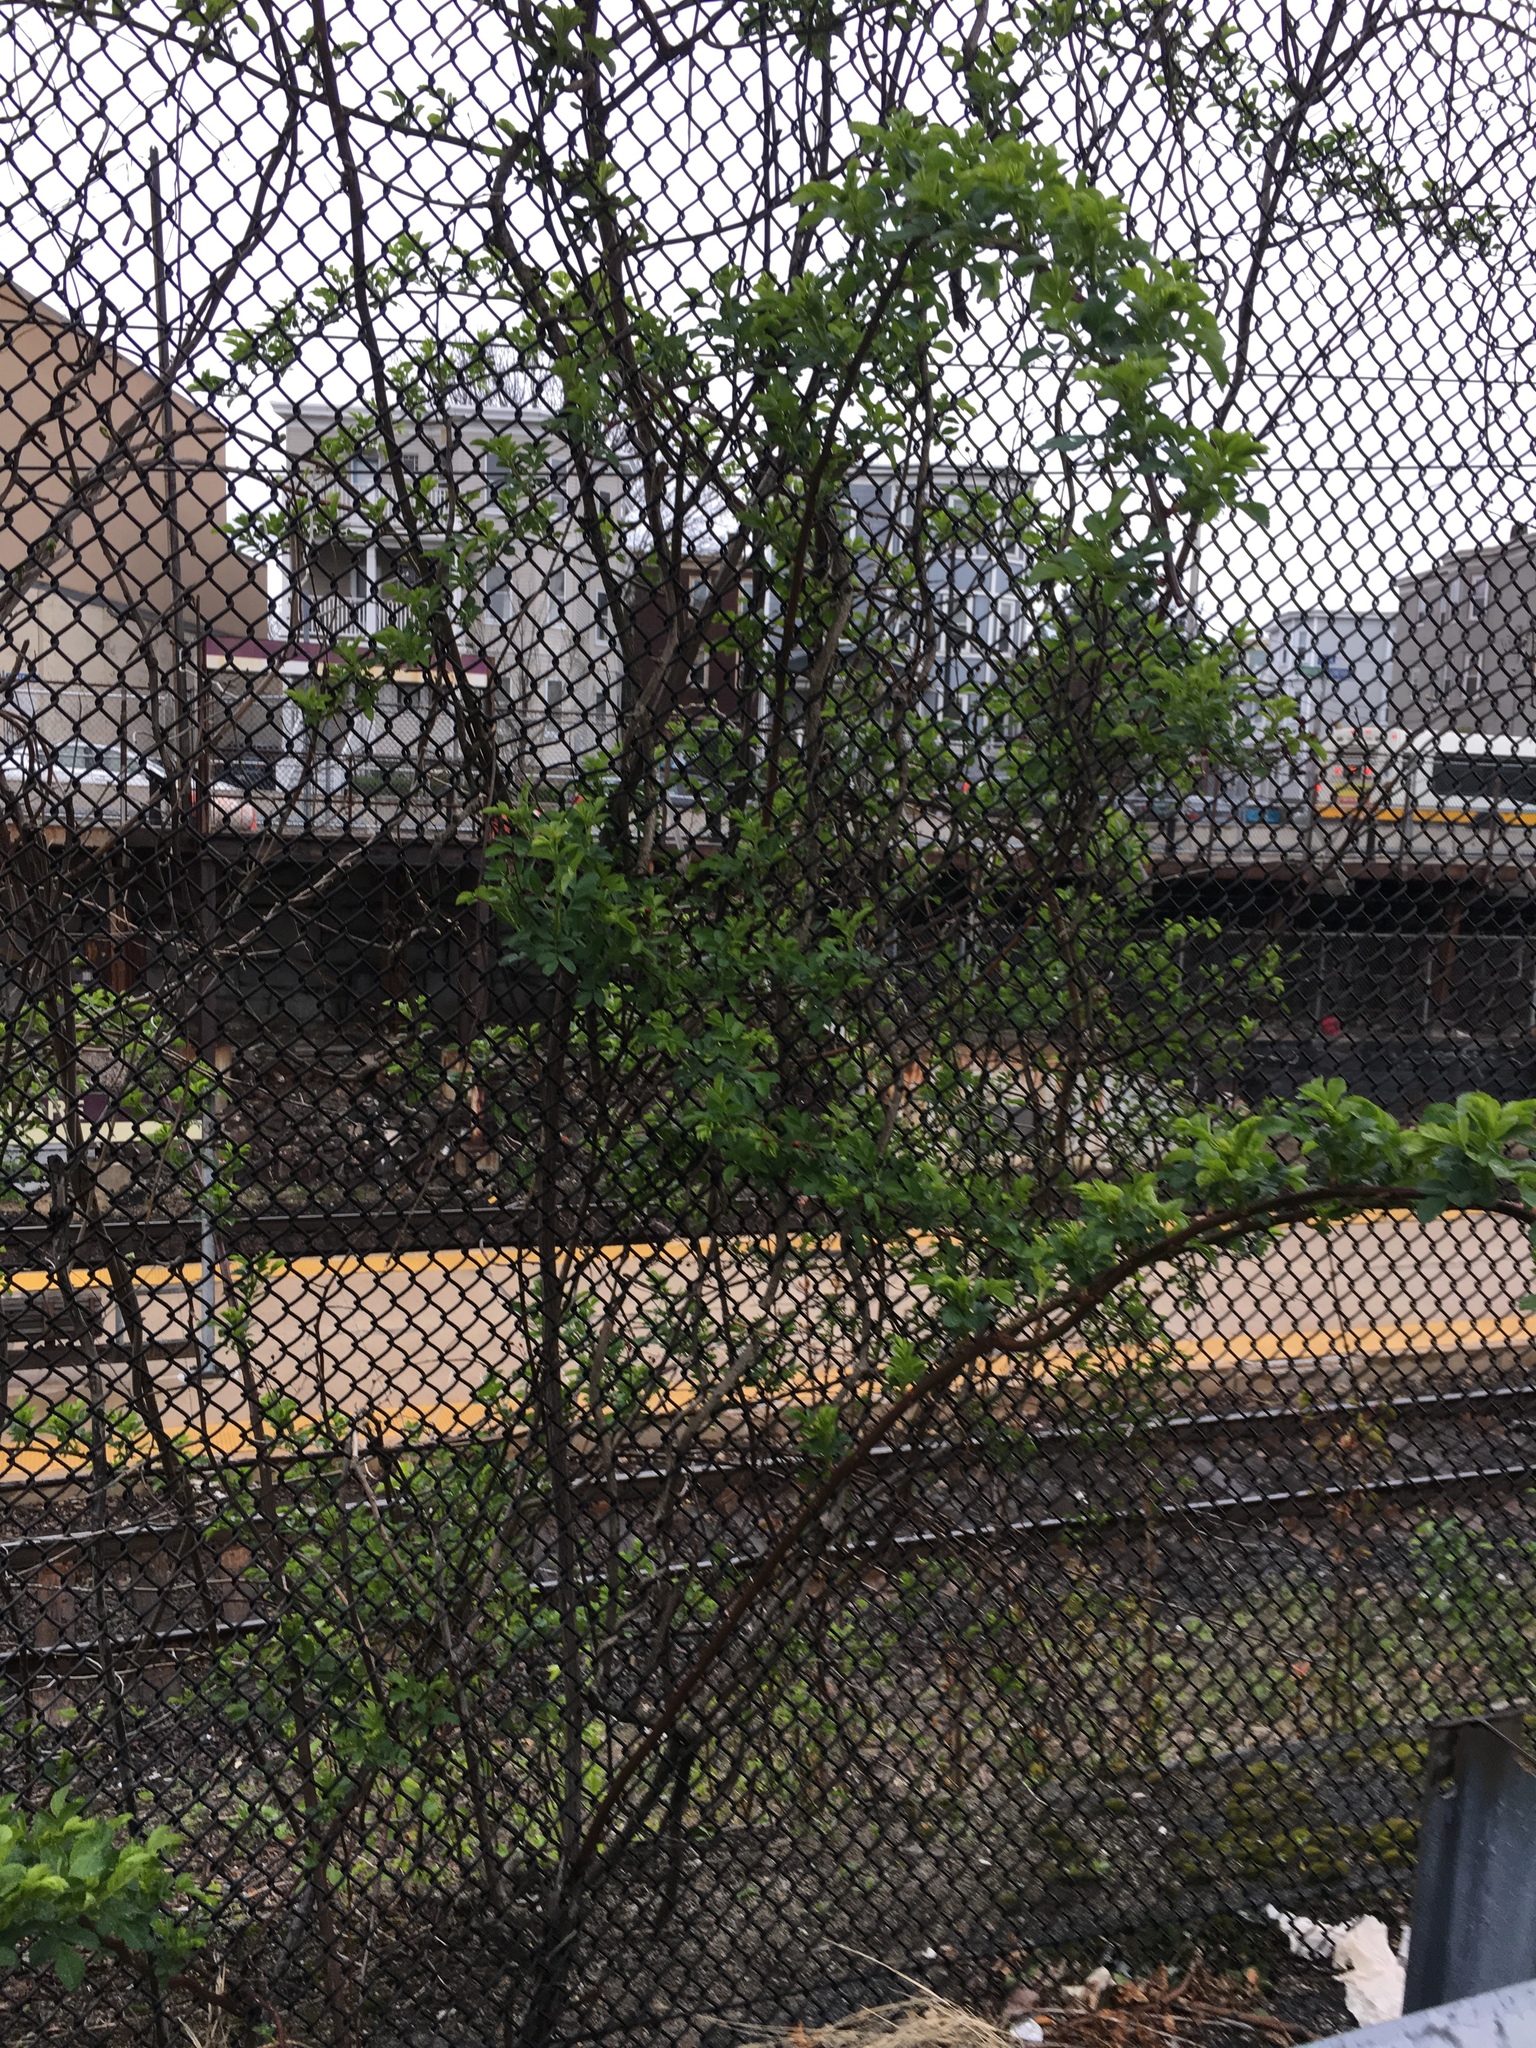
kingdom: Plantae
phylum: Tracheophyta
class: Magnoliopsida
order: Rosales
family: Rosaceae
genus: Rosa
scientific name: Rosa multiflora
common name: Multiflora rose
